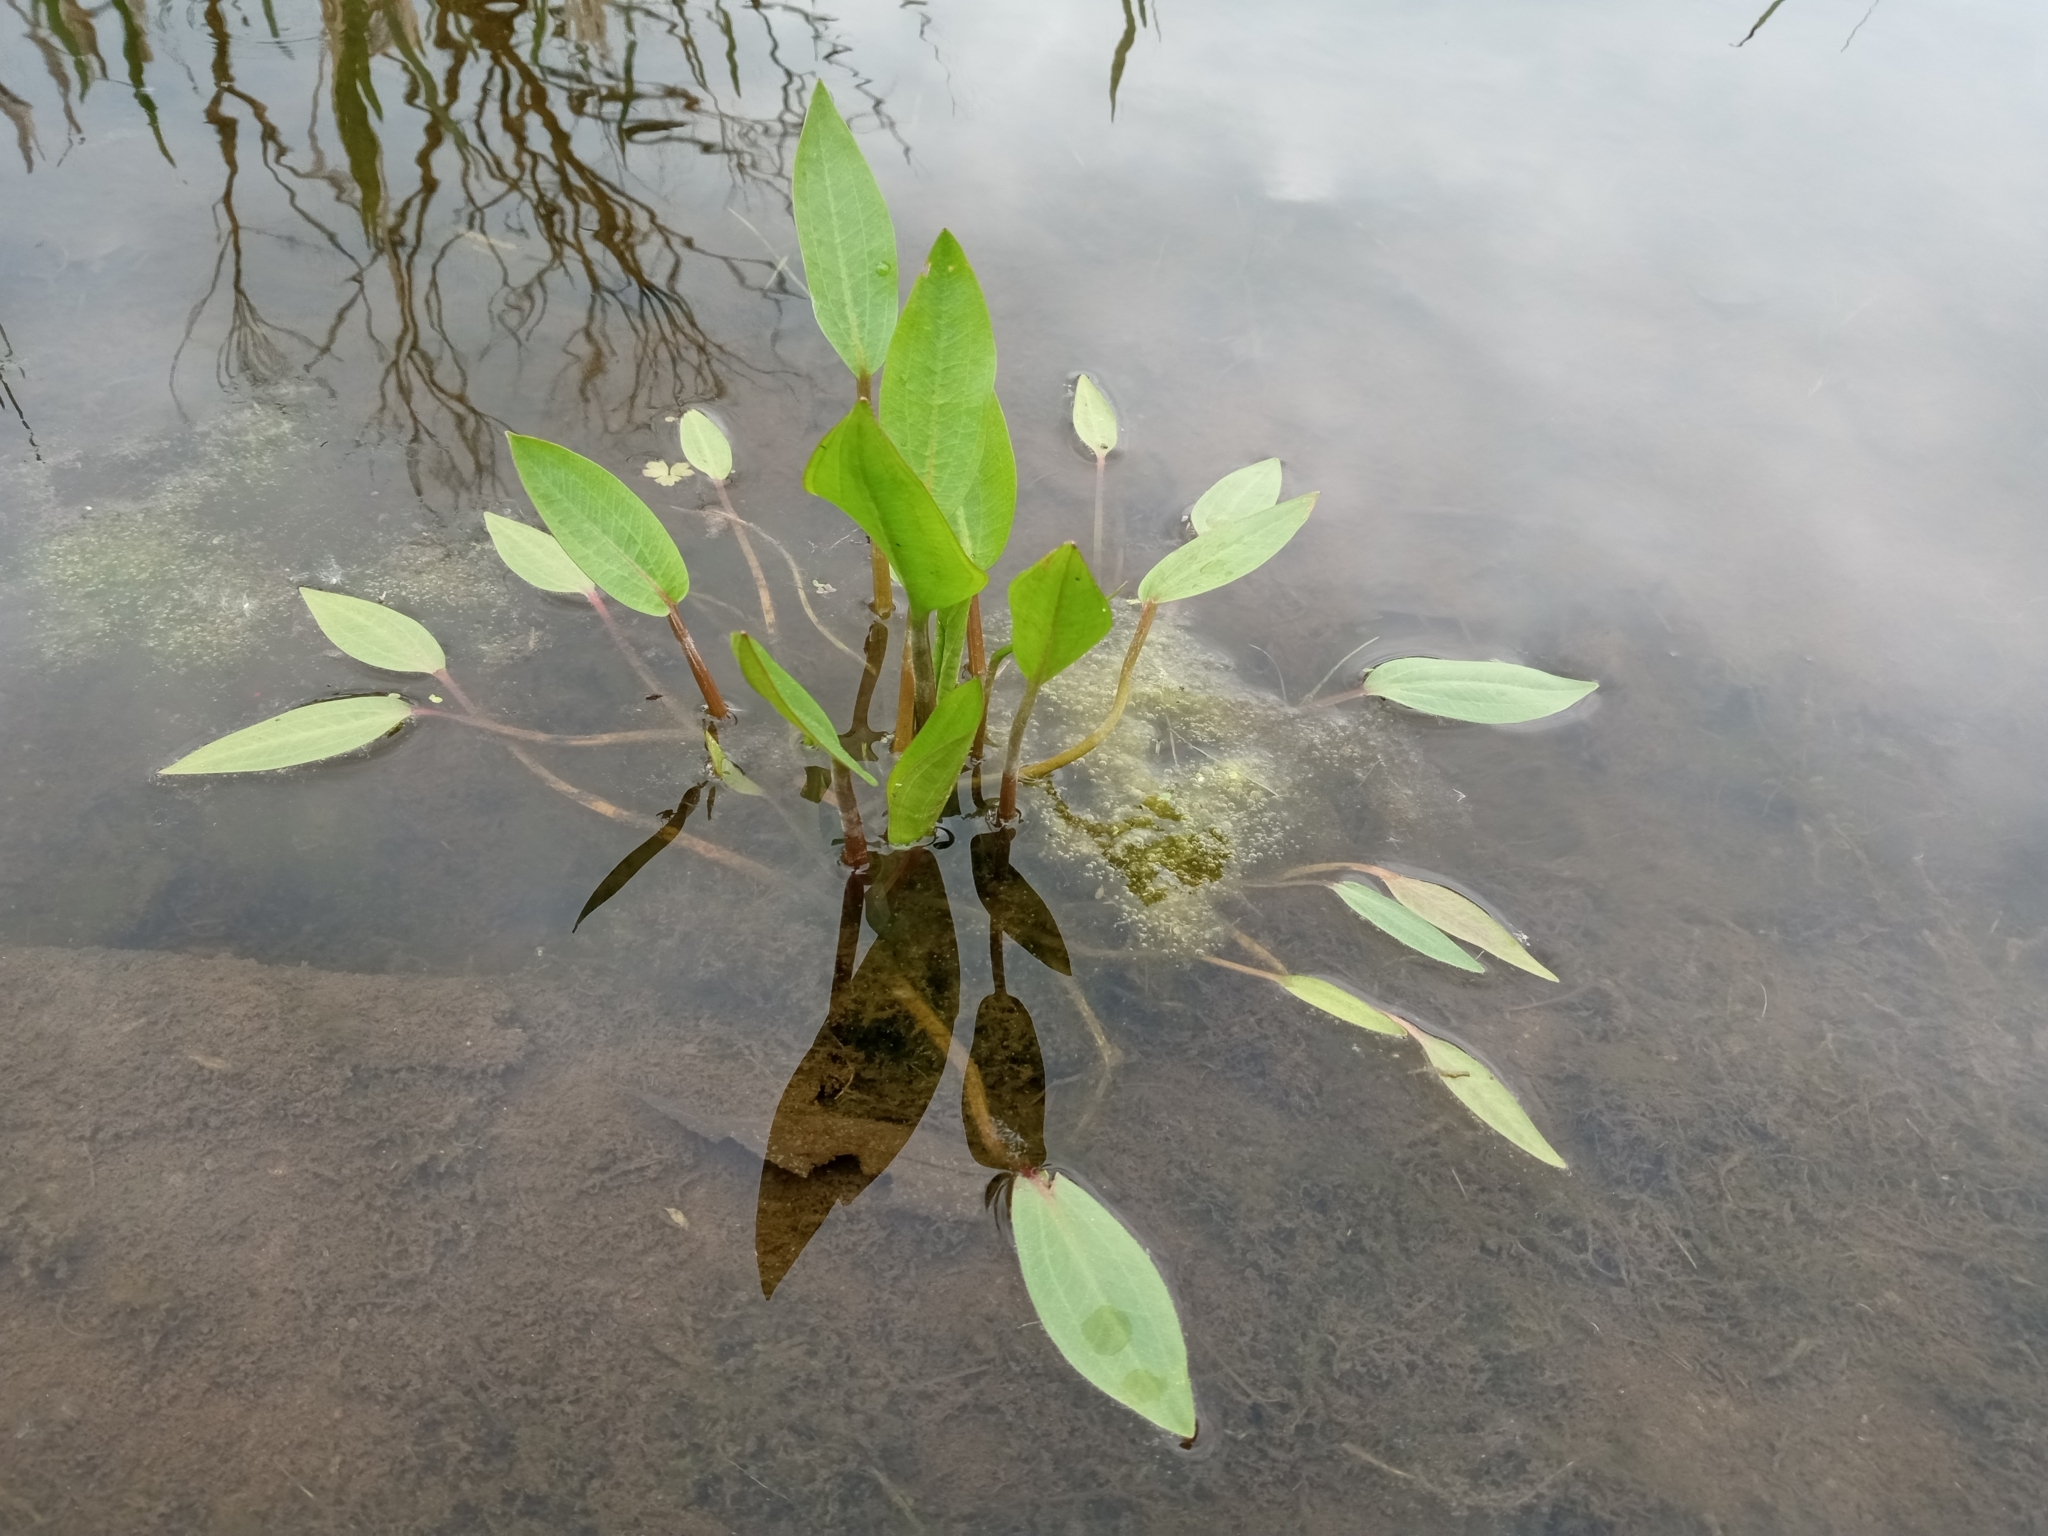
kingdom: Plantae
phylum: Tracheophyta
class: Liliopsida
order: Alismatales
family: Alismataceae
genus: Alisma
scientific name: Alisma plantago-aquatica
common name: Water-plantain
